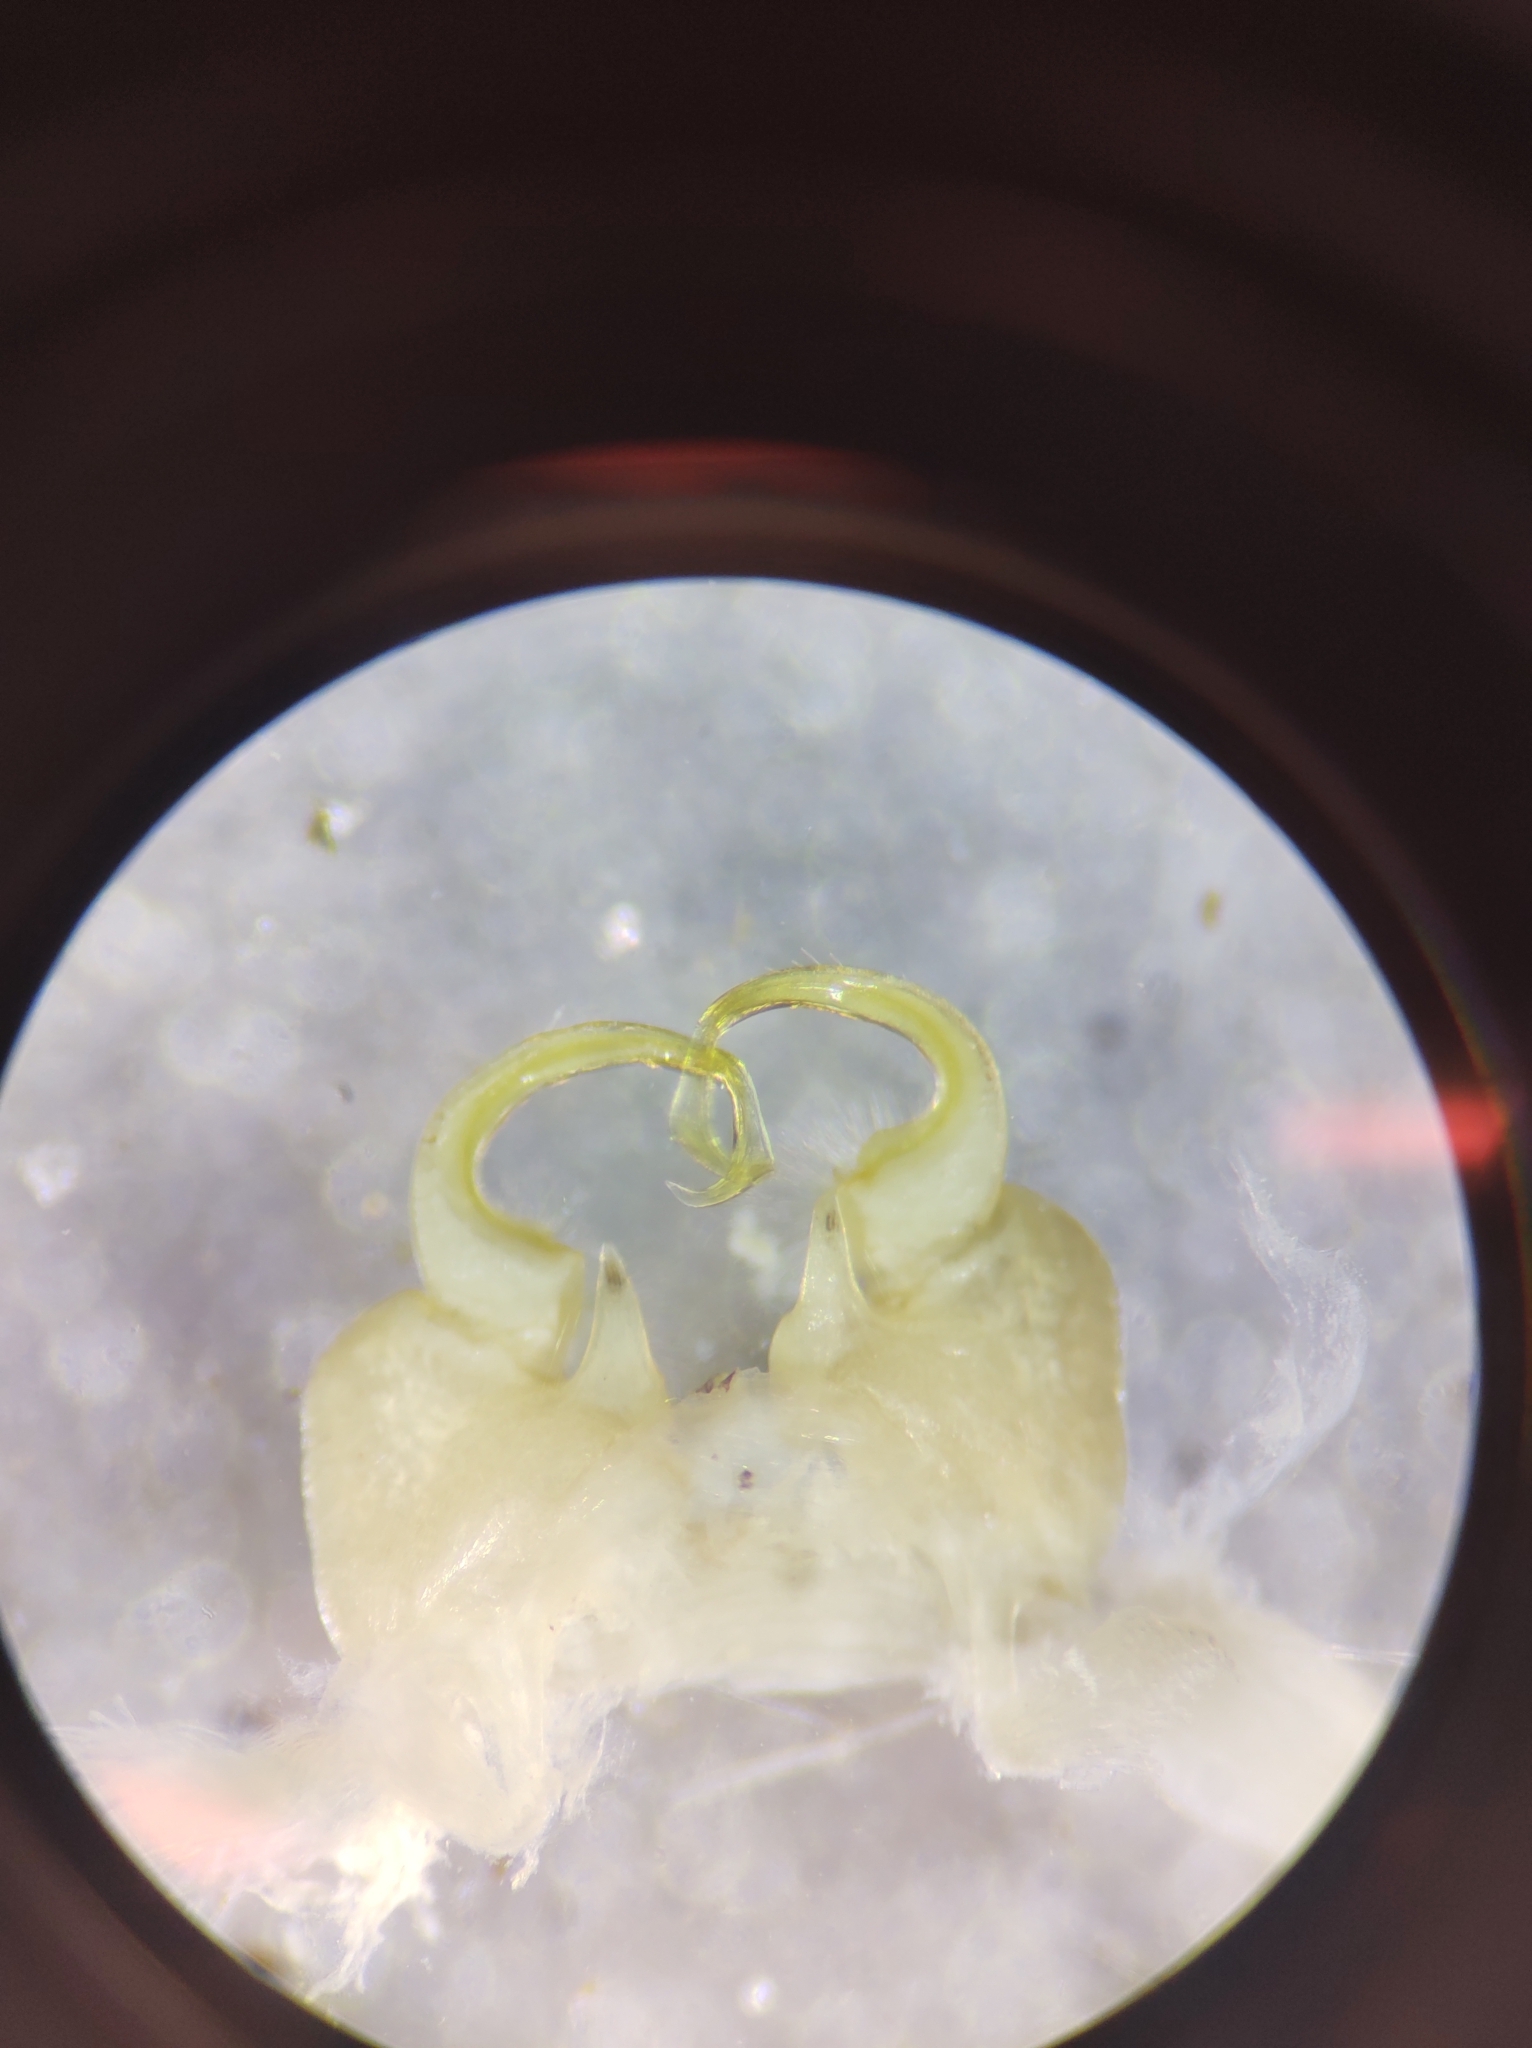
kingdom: Animalia
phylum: Arthropoda
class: Diplopoda
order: Polydesmida
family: Xystodesmidae
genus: Deltotaria
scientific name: Deltotaria brimleii
